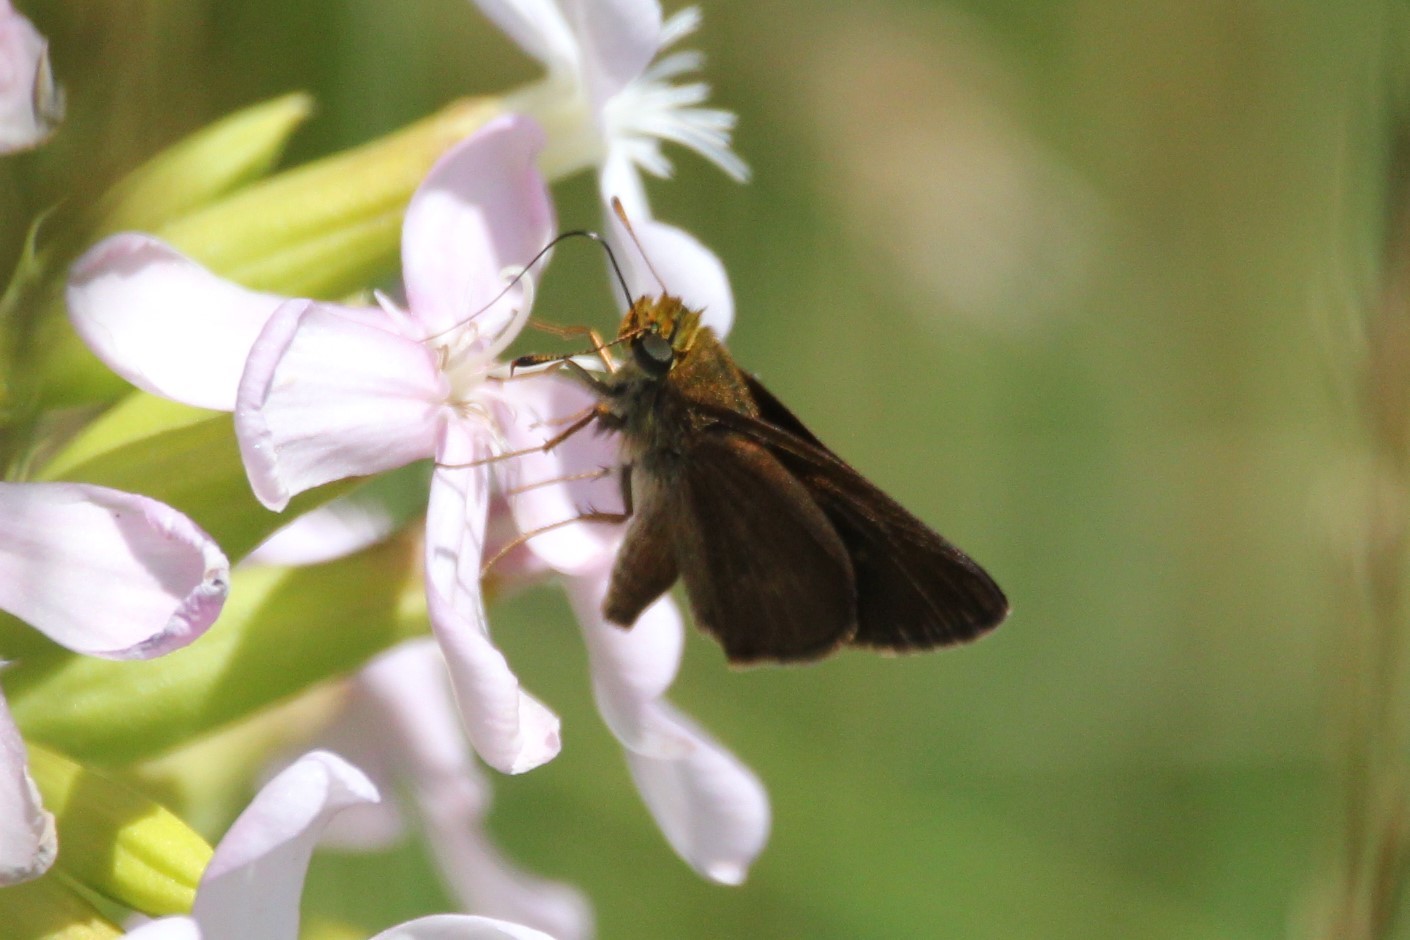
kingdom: Animalia
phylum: Arthropoda
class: Insecta
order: Lepidoptera
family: Hesperiidae
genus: Euphyes
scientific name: Euphyes vestris
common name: Dun skipper
